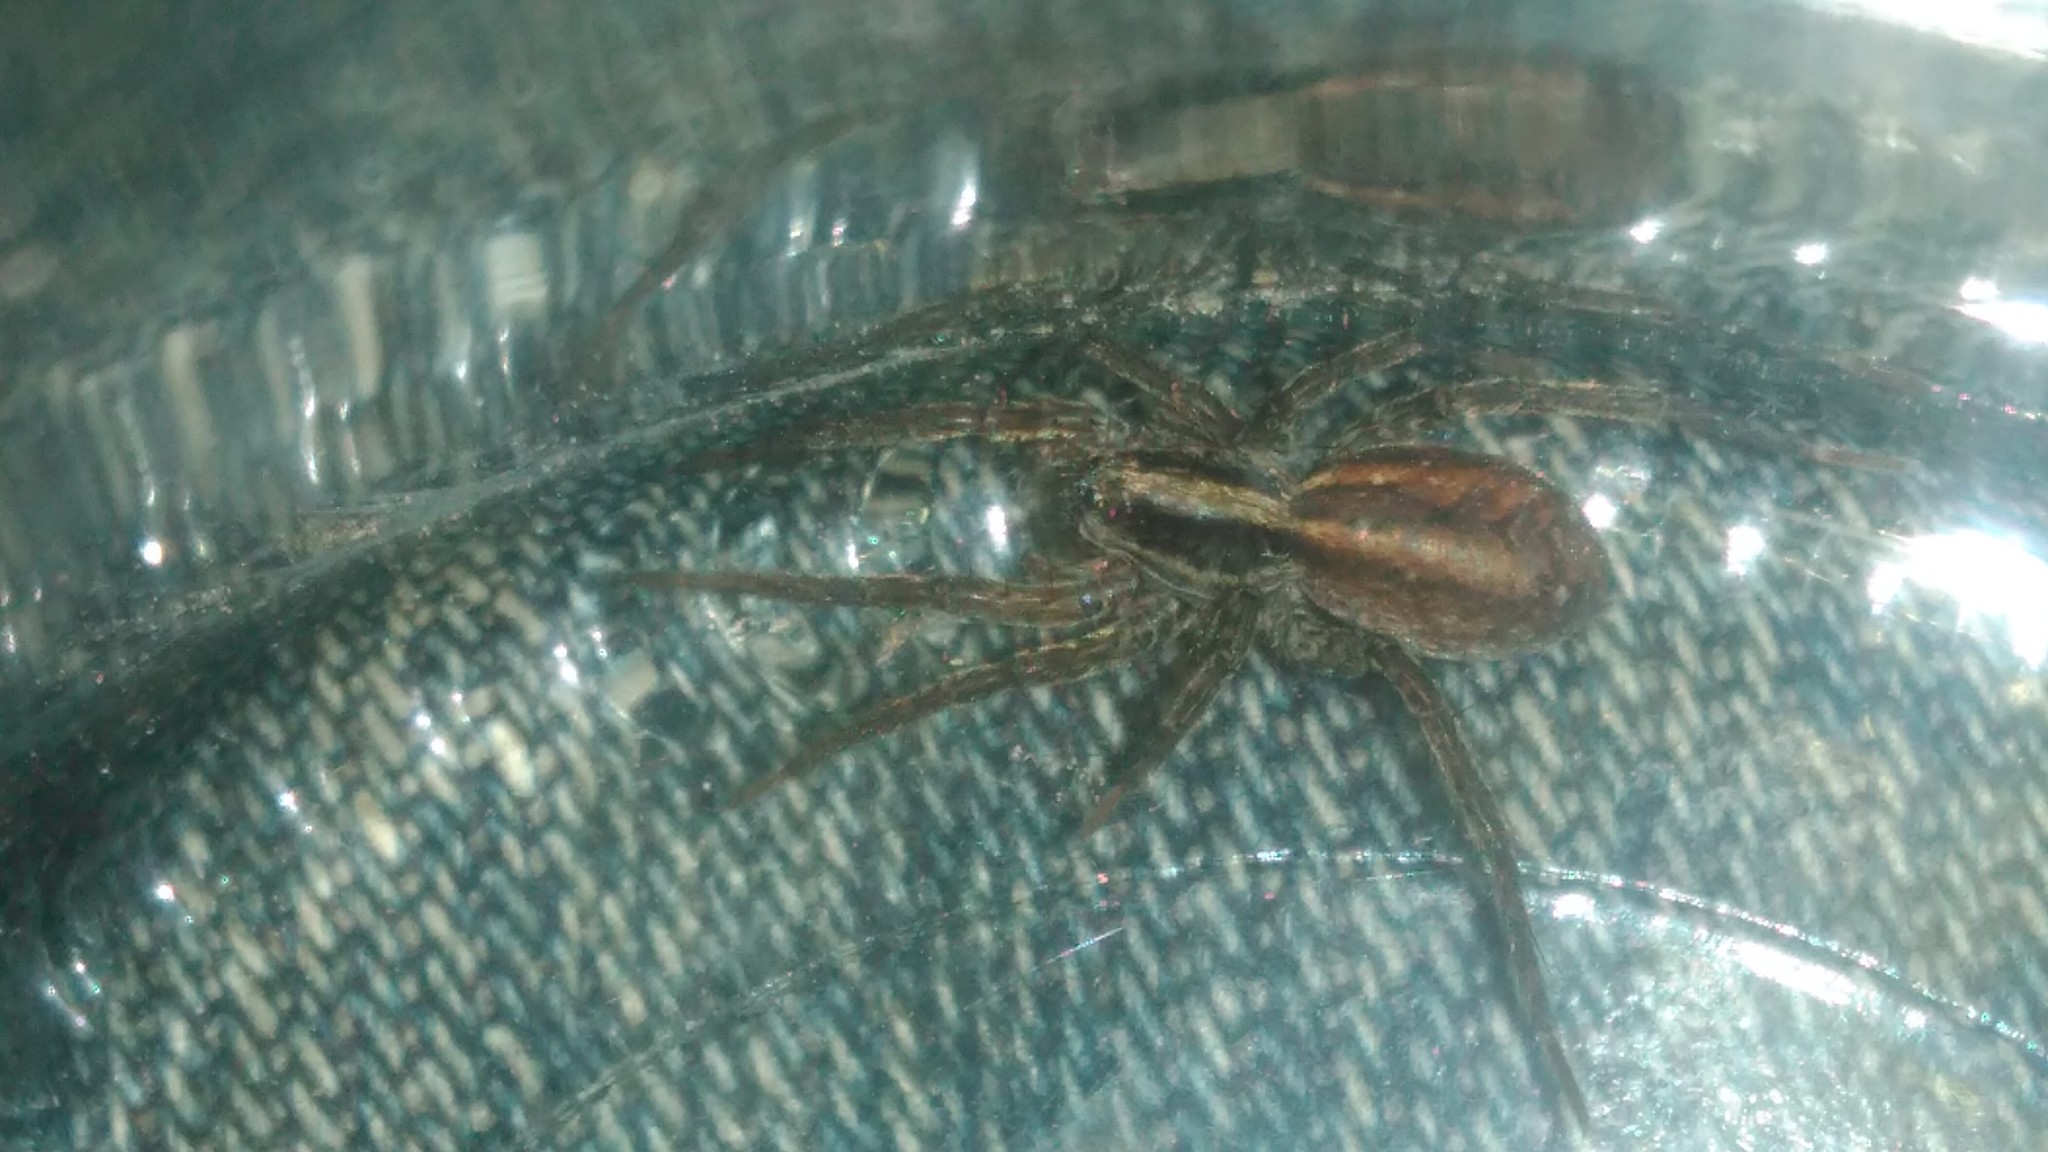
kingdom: Animalia
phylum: Arthropoda
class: Arachnida
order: Araneae
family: Lycosidae
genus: Alopecosa
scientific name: Alopecosa moesta
